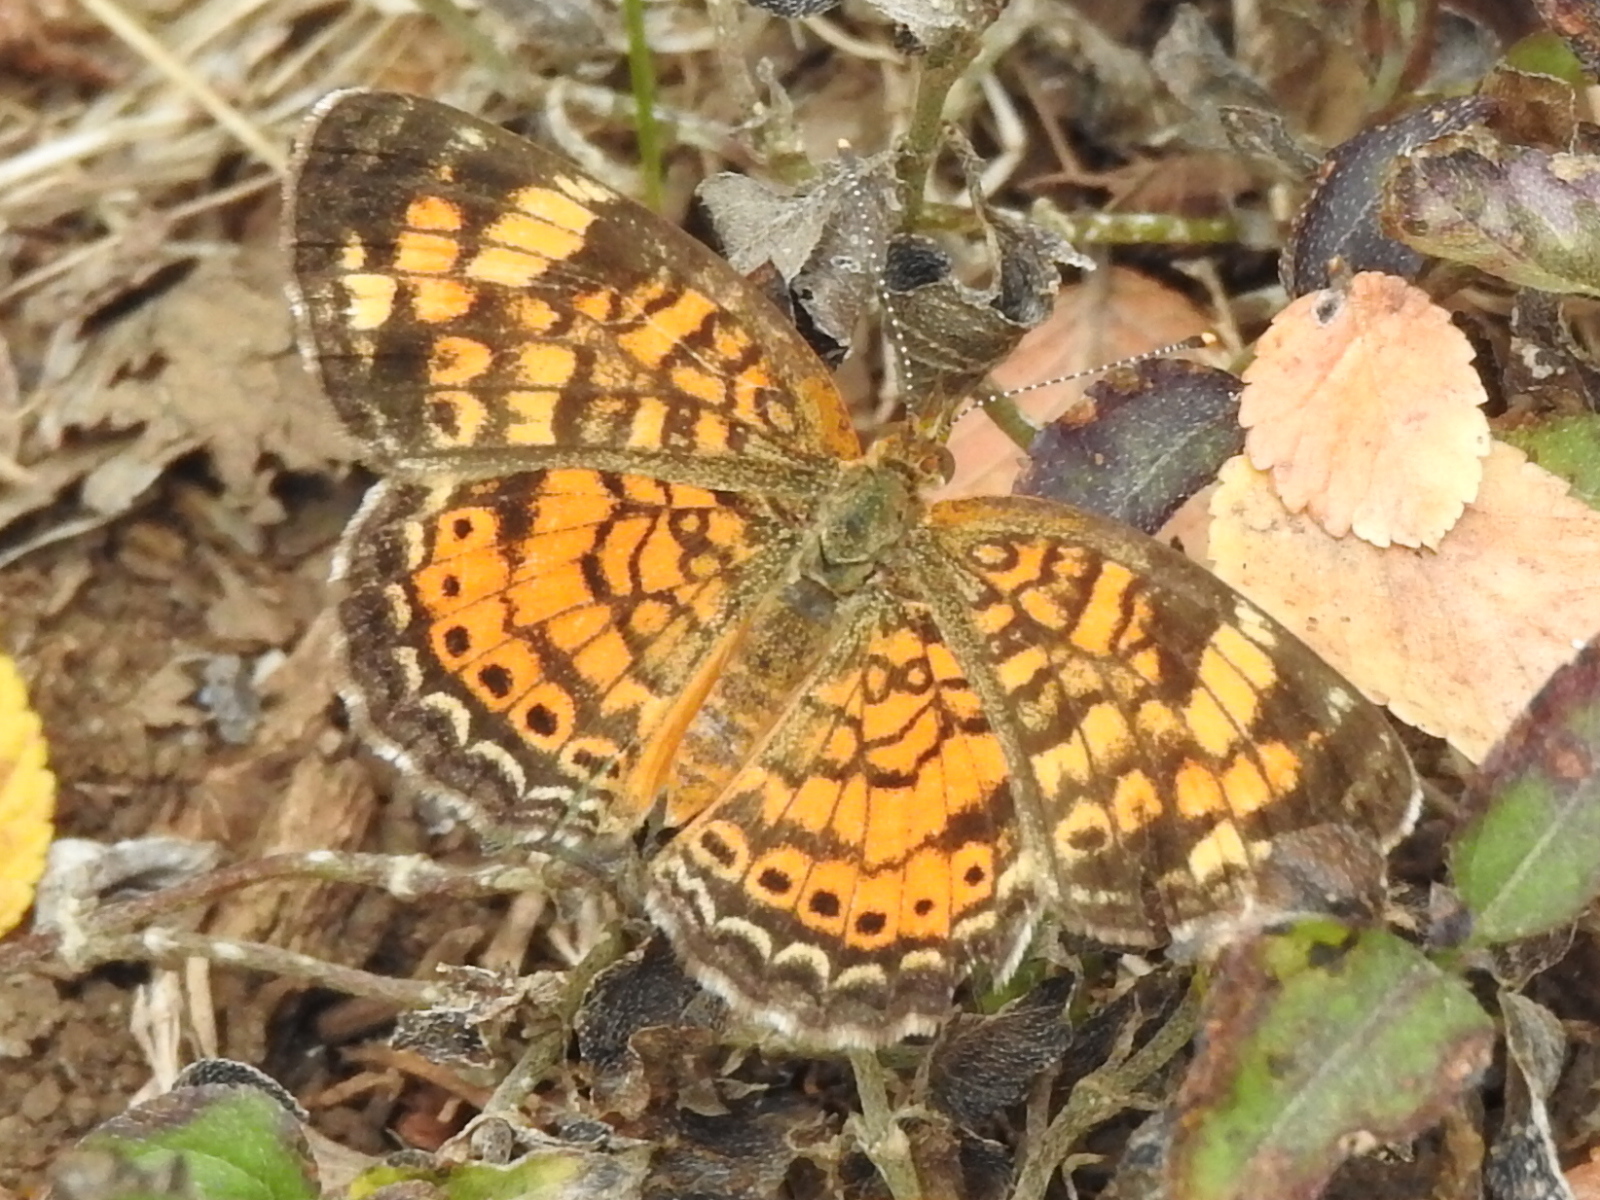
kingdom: Animalia
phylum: Arthropoda
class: Insecta
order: Lepidoptera
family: Nymphalidae
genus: Phyciodes
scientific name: Phyciodes tharos
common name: Pearl crescent
